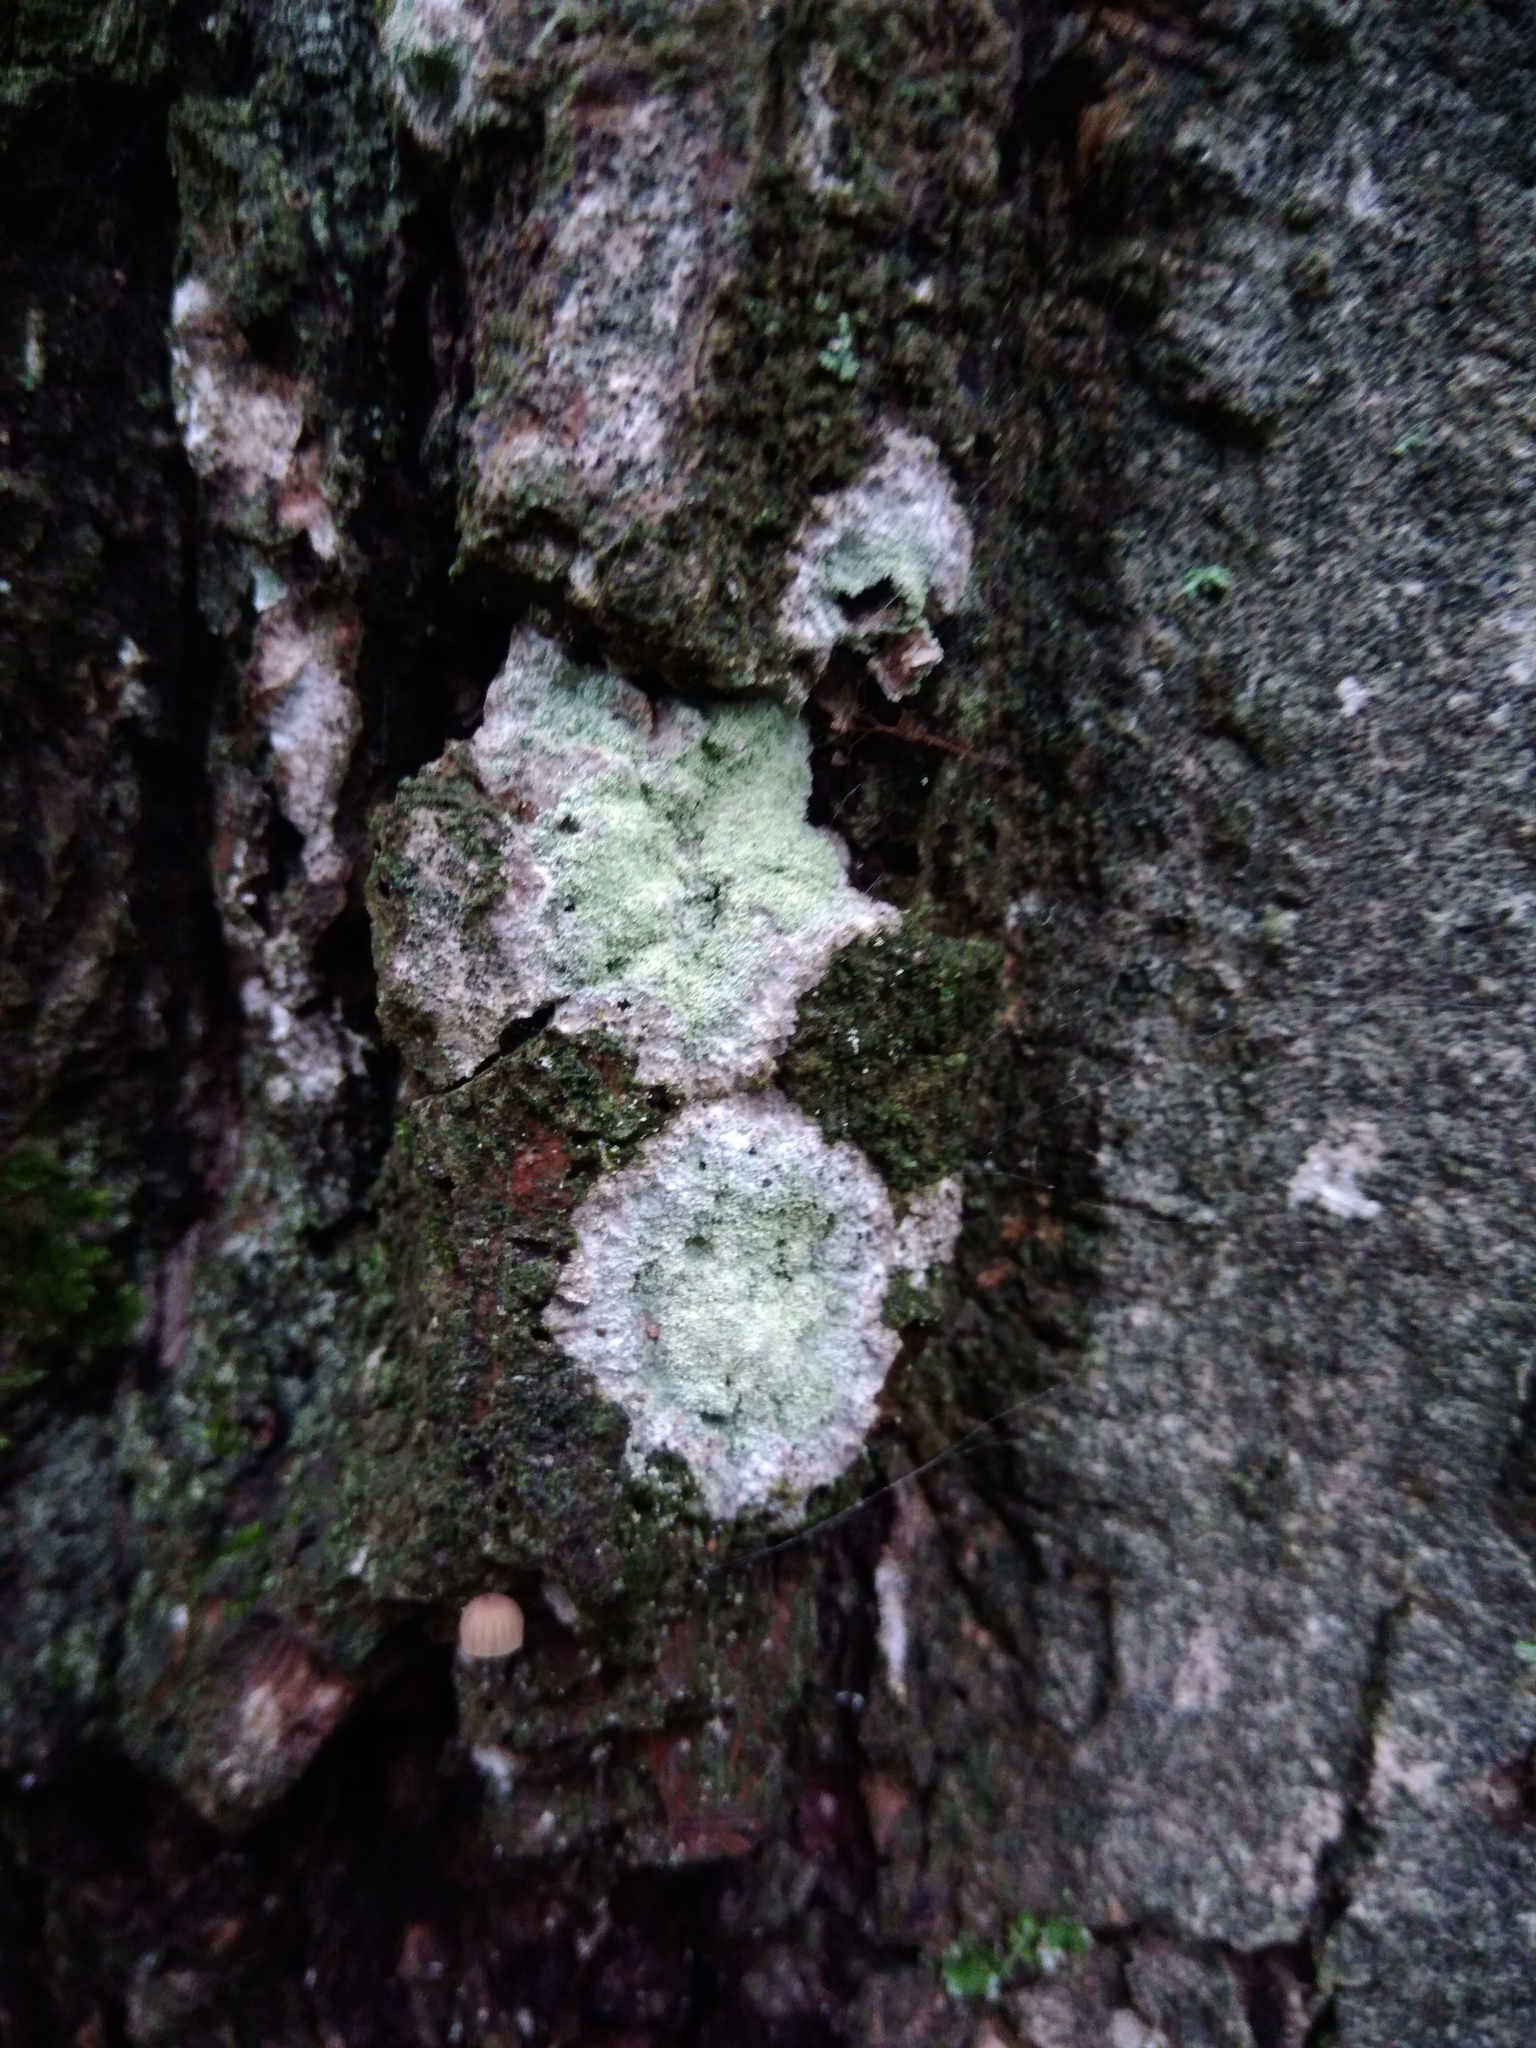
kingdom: Fungi
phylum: Ascomycota
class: Lecanoromycetes
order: Ostropales
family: Phlyctidaceae
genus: Phlyctis
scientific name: Phlyctis argena
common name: Whitewash lichen
